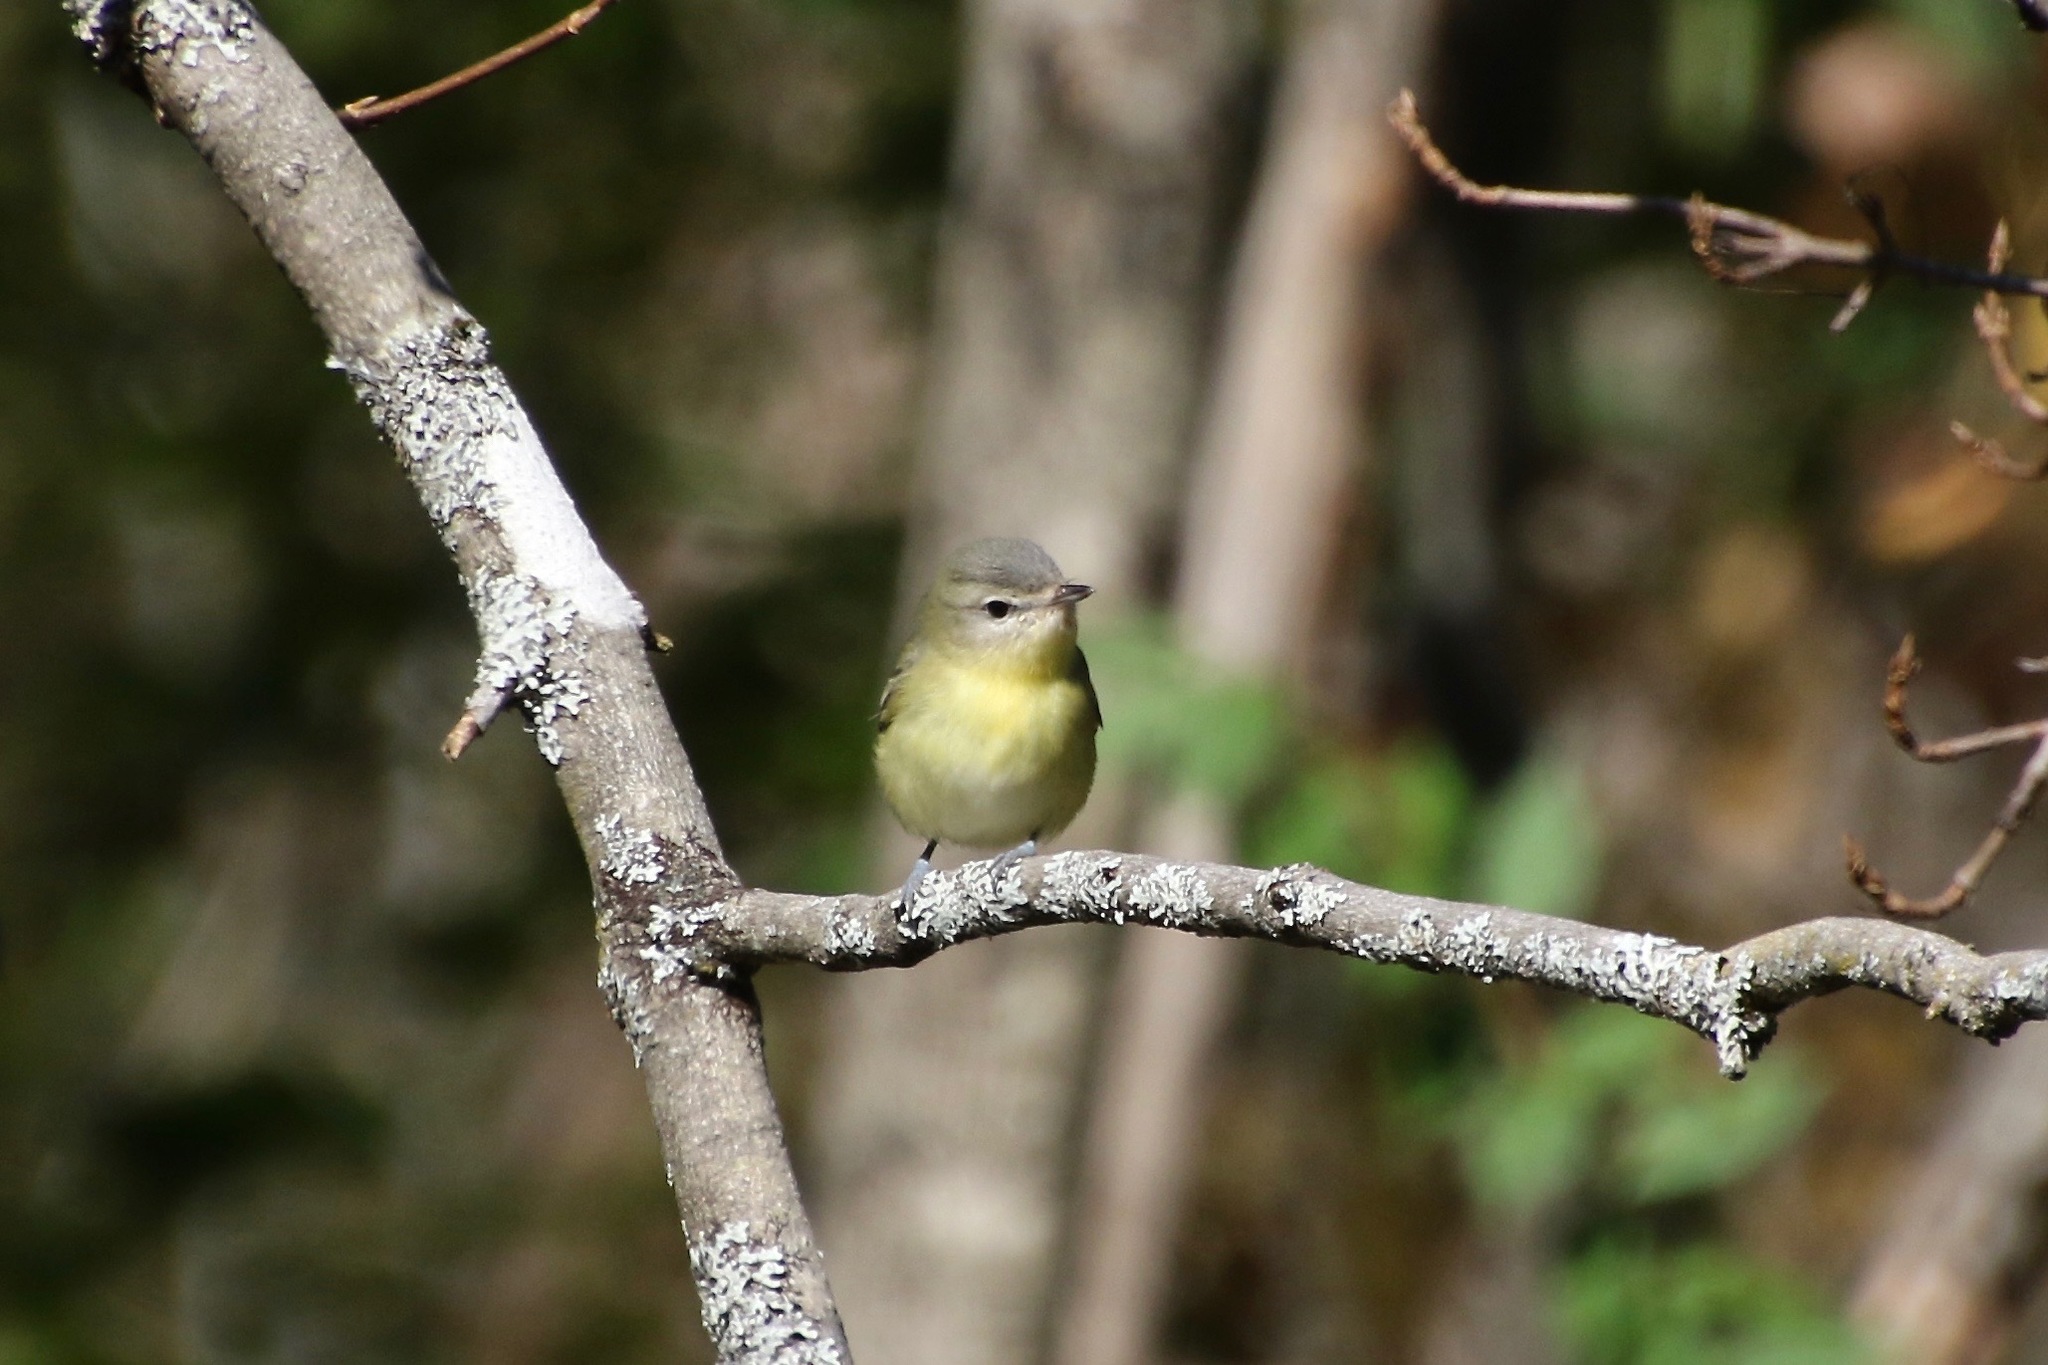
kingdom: Animalia
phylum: Chordata
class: Aves
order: Passeriformes
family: Vireonidae
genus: Vireo
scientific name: Vireo philadelphicus
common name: Philadelphia vireo
